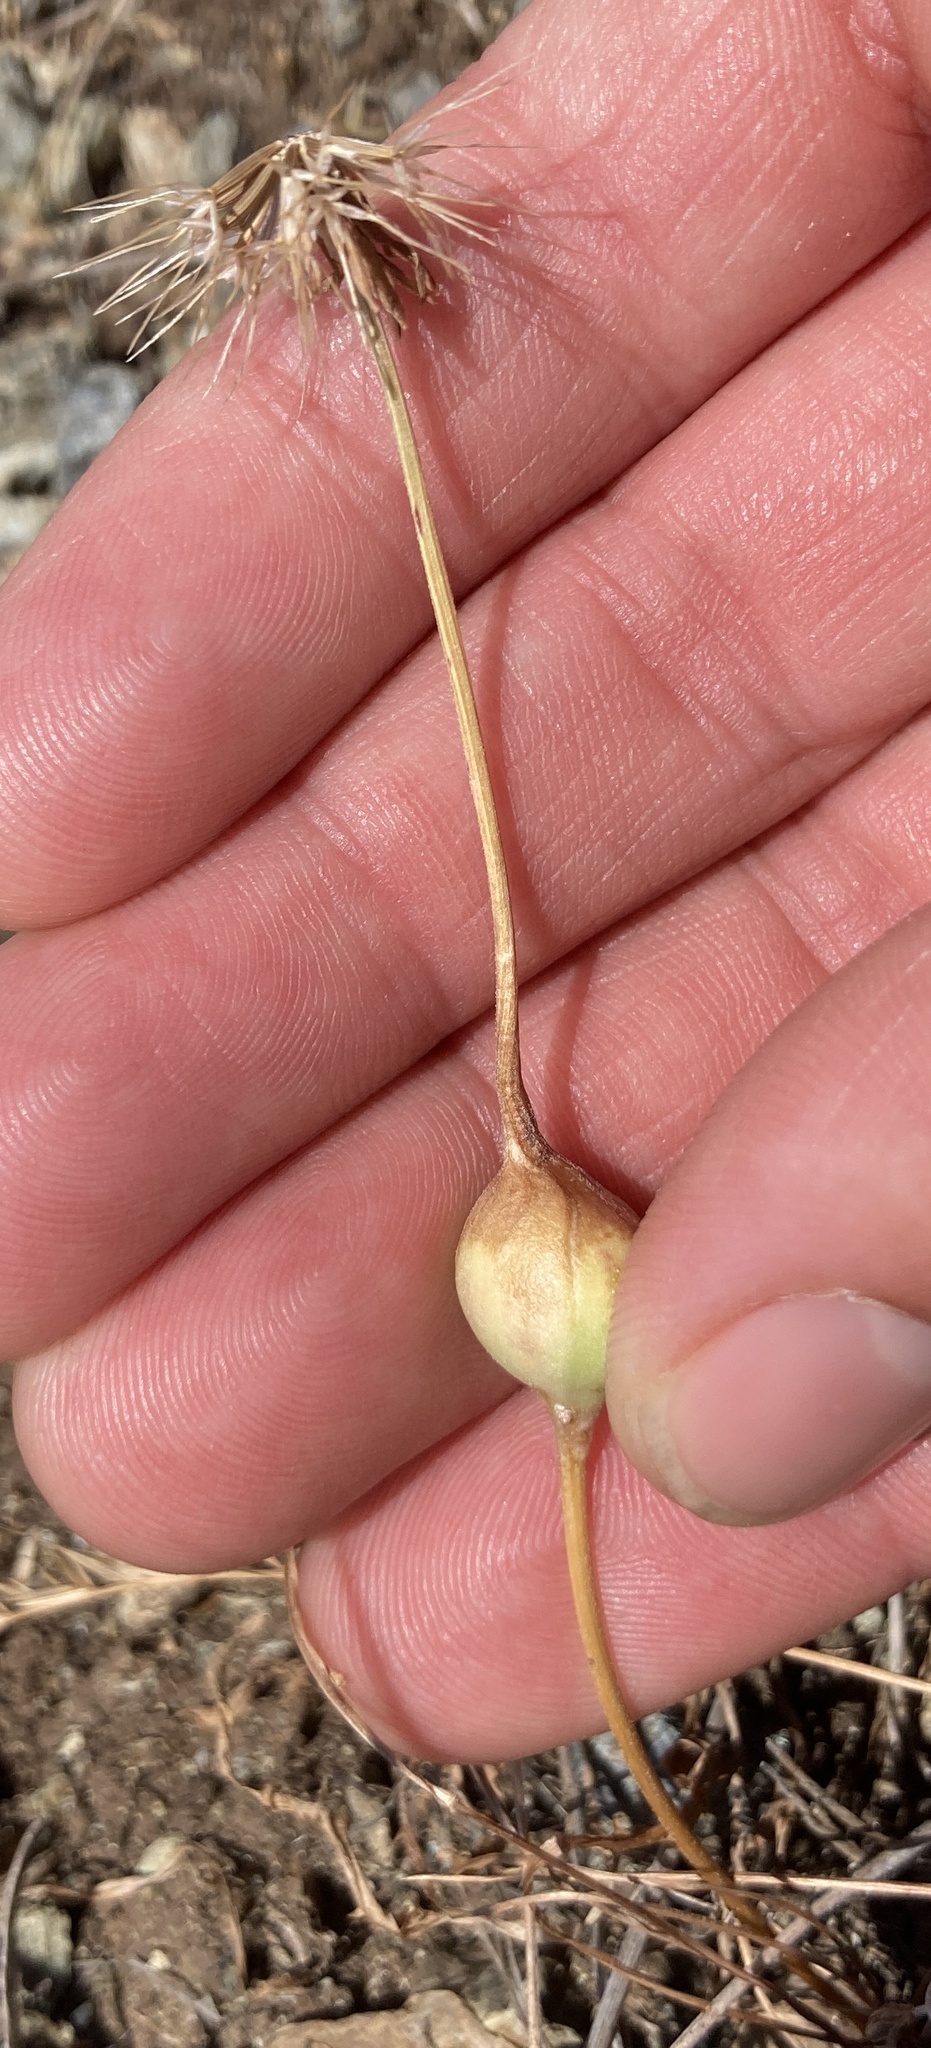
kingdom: Animalia
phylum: Arthropoda
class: Insecta
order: Hymenoptera
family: Cynipidae
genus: Antistrophus
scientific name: Antistrophus
